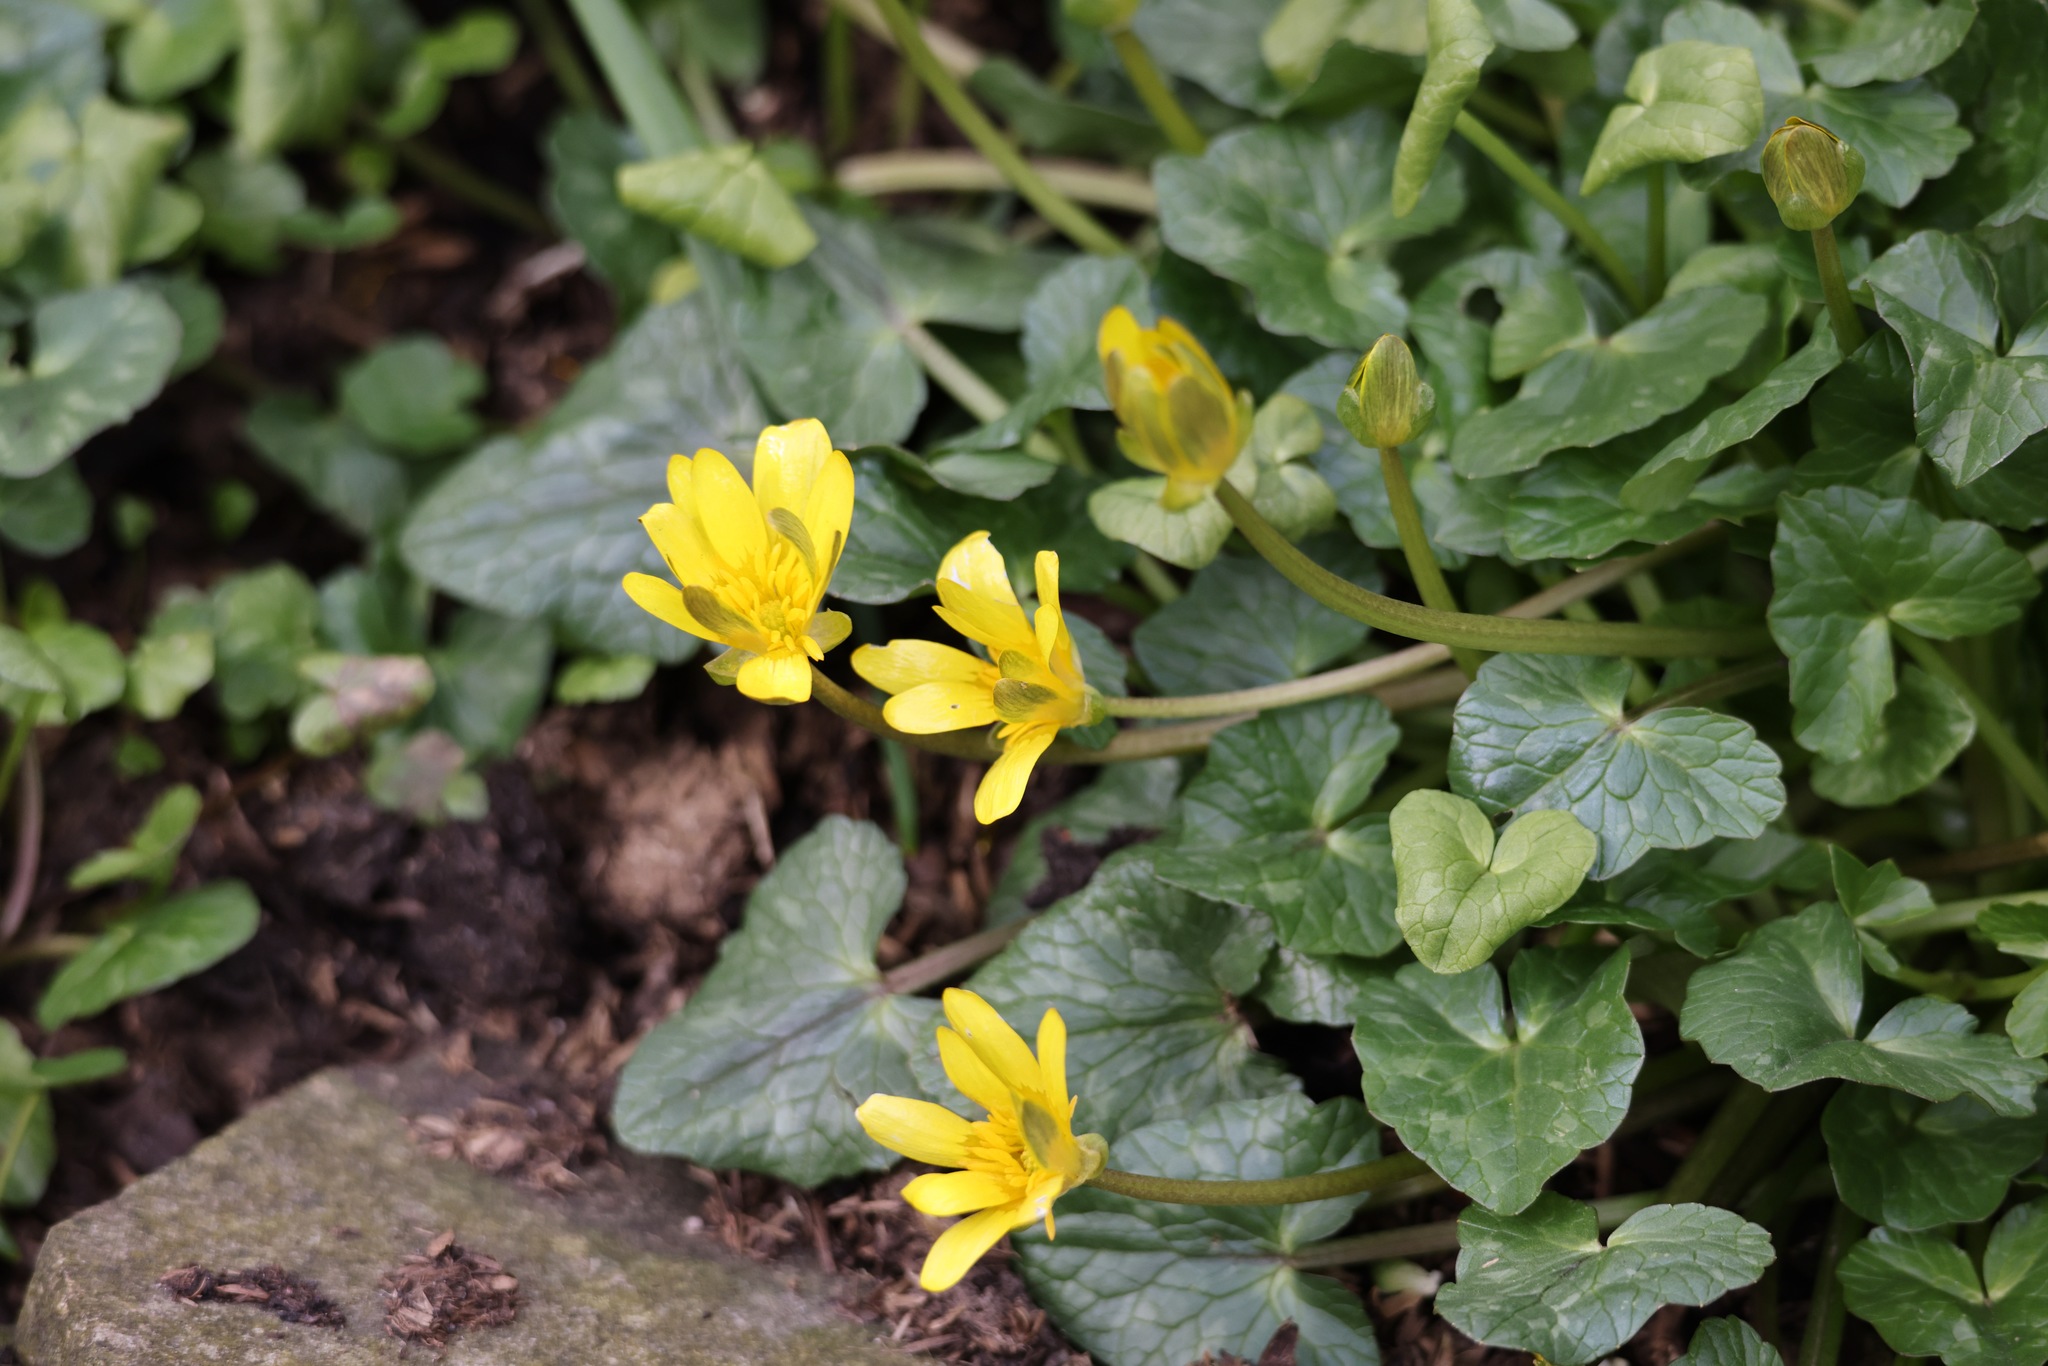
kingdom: Plantae
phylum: Tracheophyta
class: Magnoliopsida
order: Ranunculales
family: Ranunculaceae
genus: Ficaria
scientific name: Ficaria verna
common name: Lesser celandine
